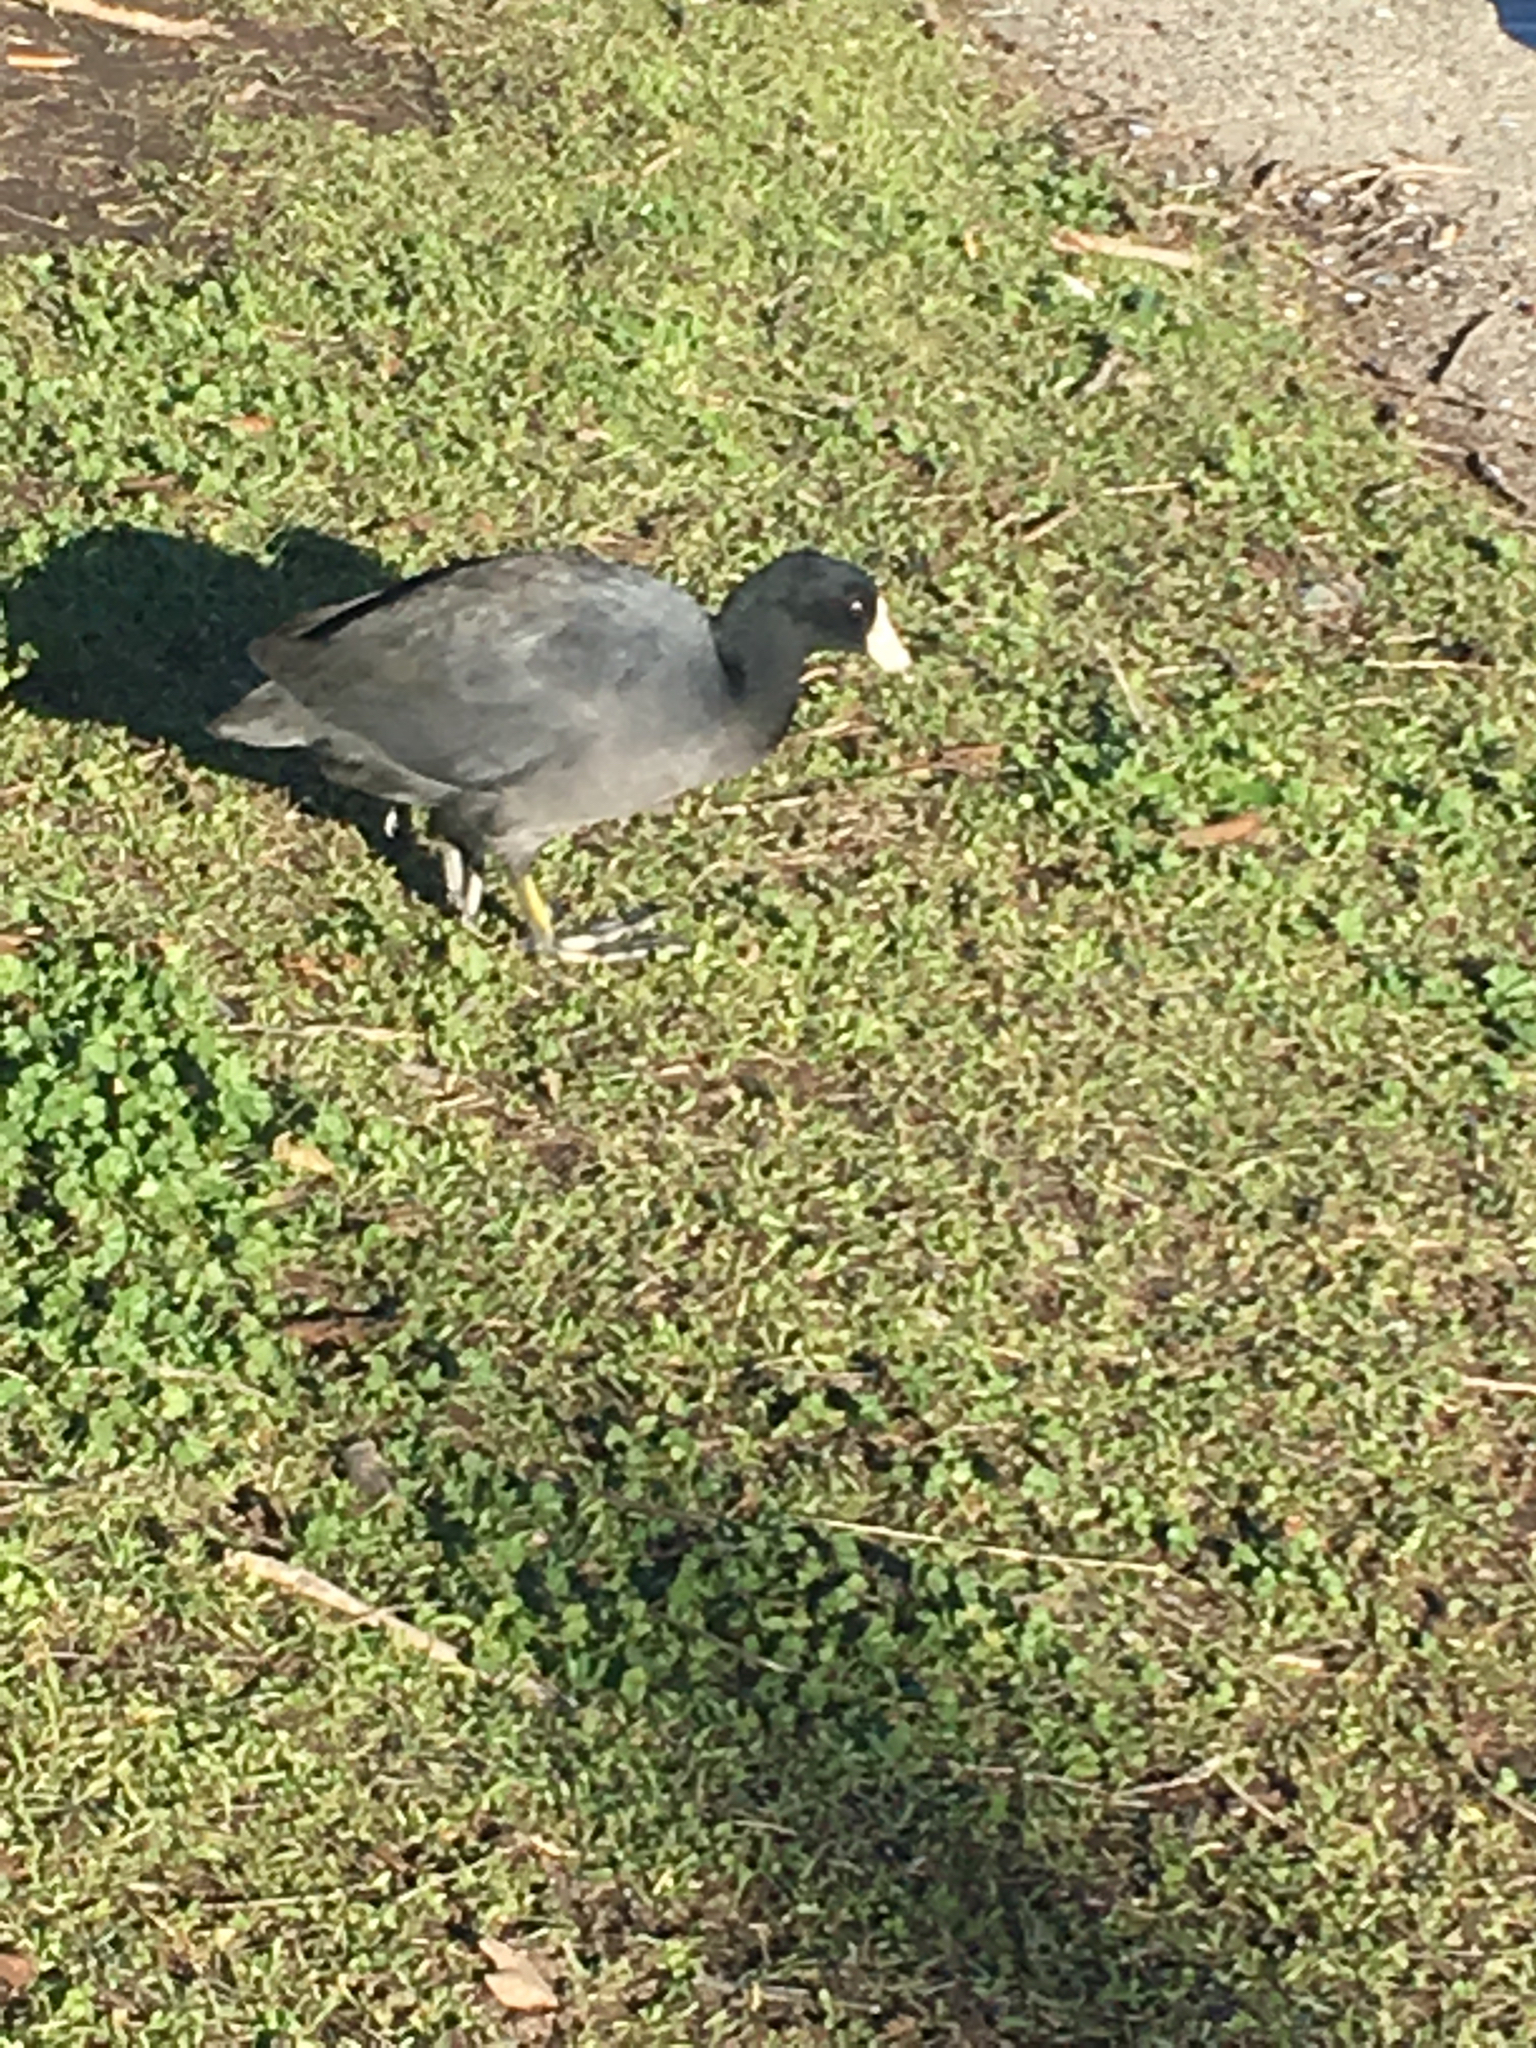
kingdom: Animalia
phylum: Chordata
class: Aves
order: Gruiformes
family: Rallidae
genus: Fulica
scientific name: Fulica americana
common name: American coot
